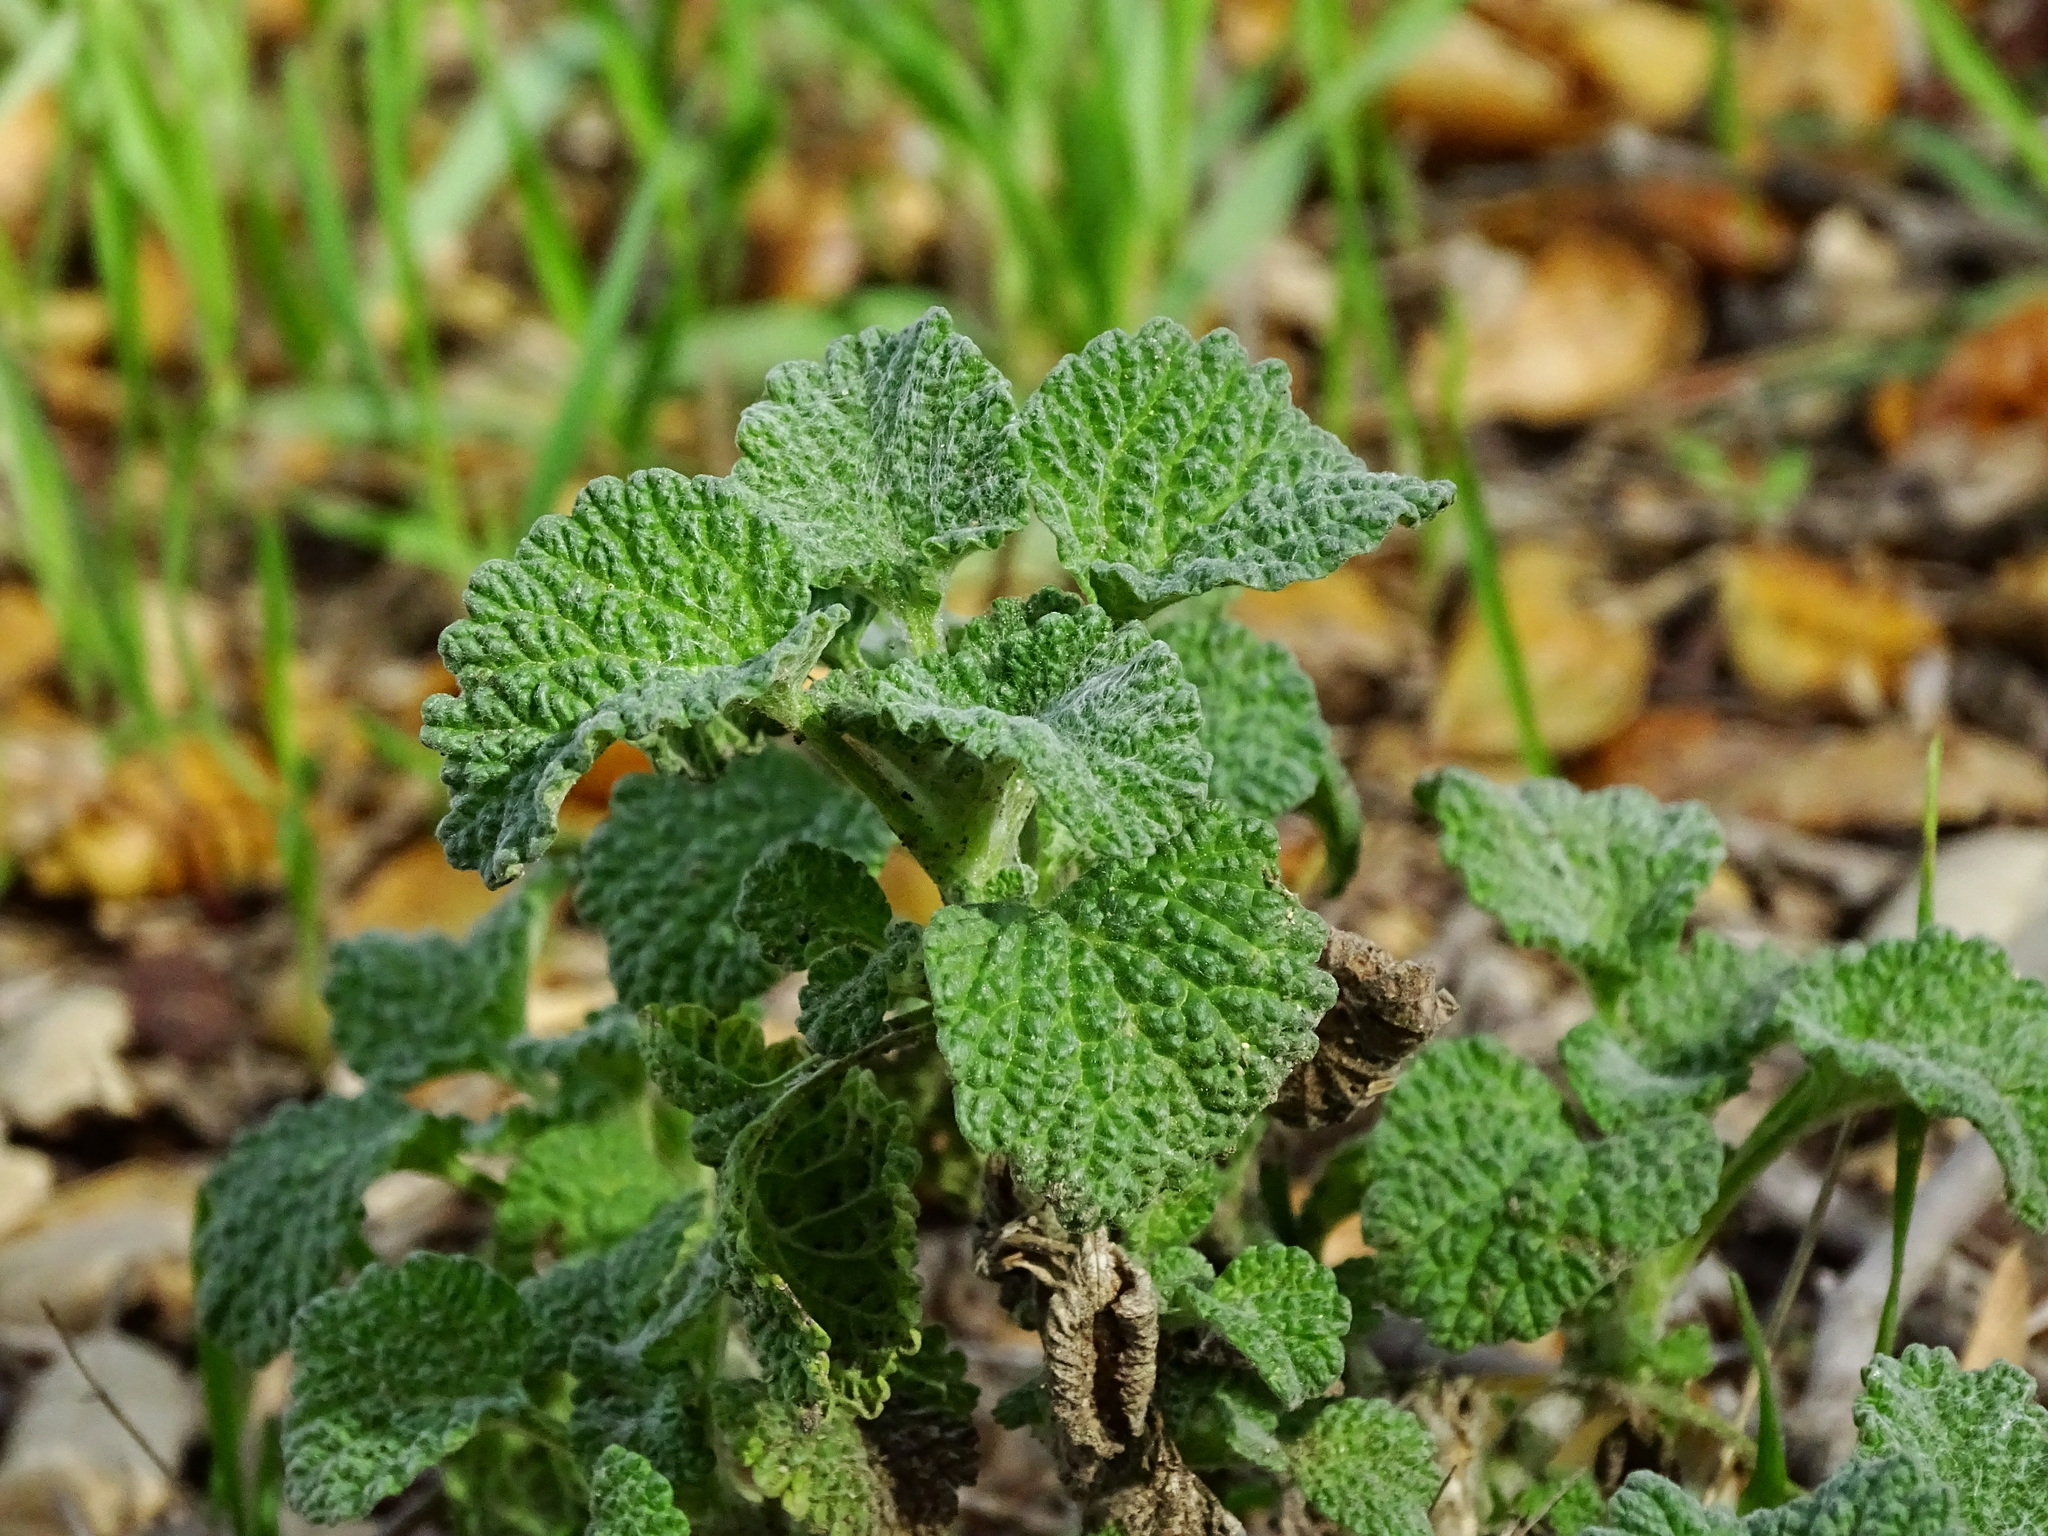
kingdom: Plantae
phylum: Tracheophyta
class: Magnoliopsida
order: Lamiales
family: Lamiaceae
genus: Marrubium
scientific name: Marrubium vulgare
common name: Horehound
